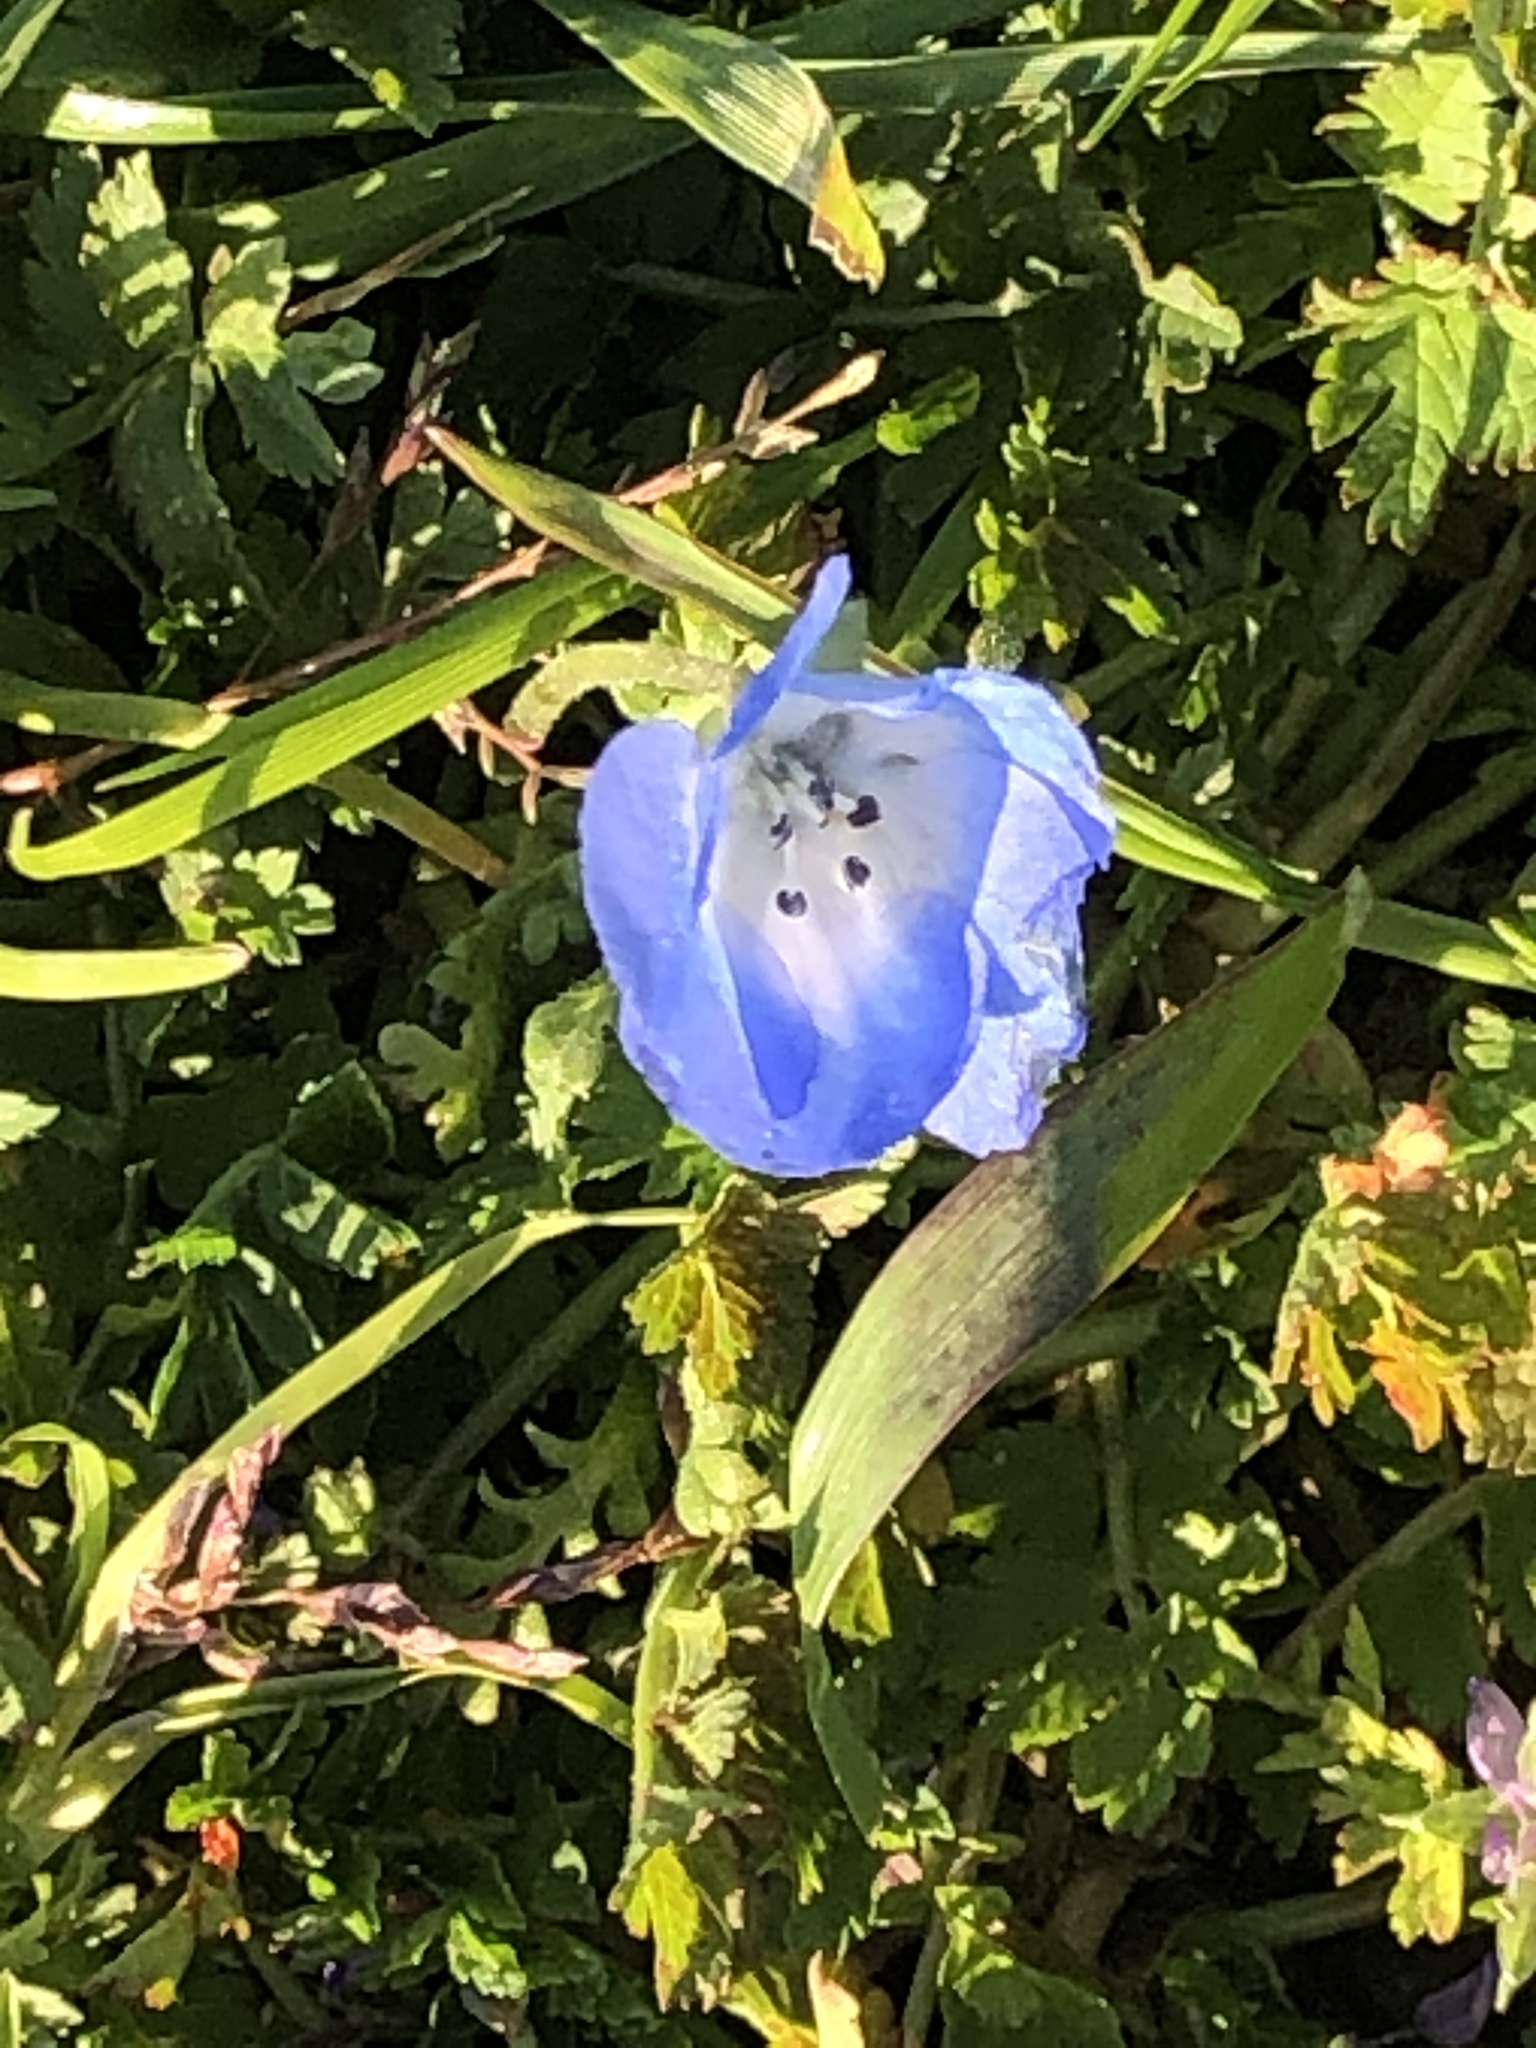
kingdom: Plantae
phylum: Tracheophyta
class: Magnoliopsida
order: Lamiales
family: Plantaginaceae
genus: Veronica
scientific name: Veronica persica
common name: Common field-speedwell
